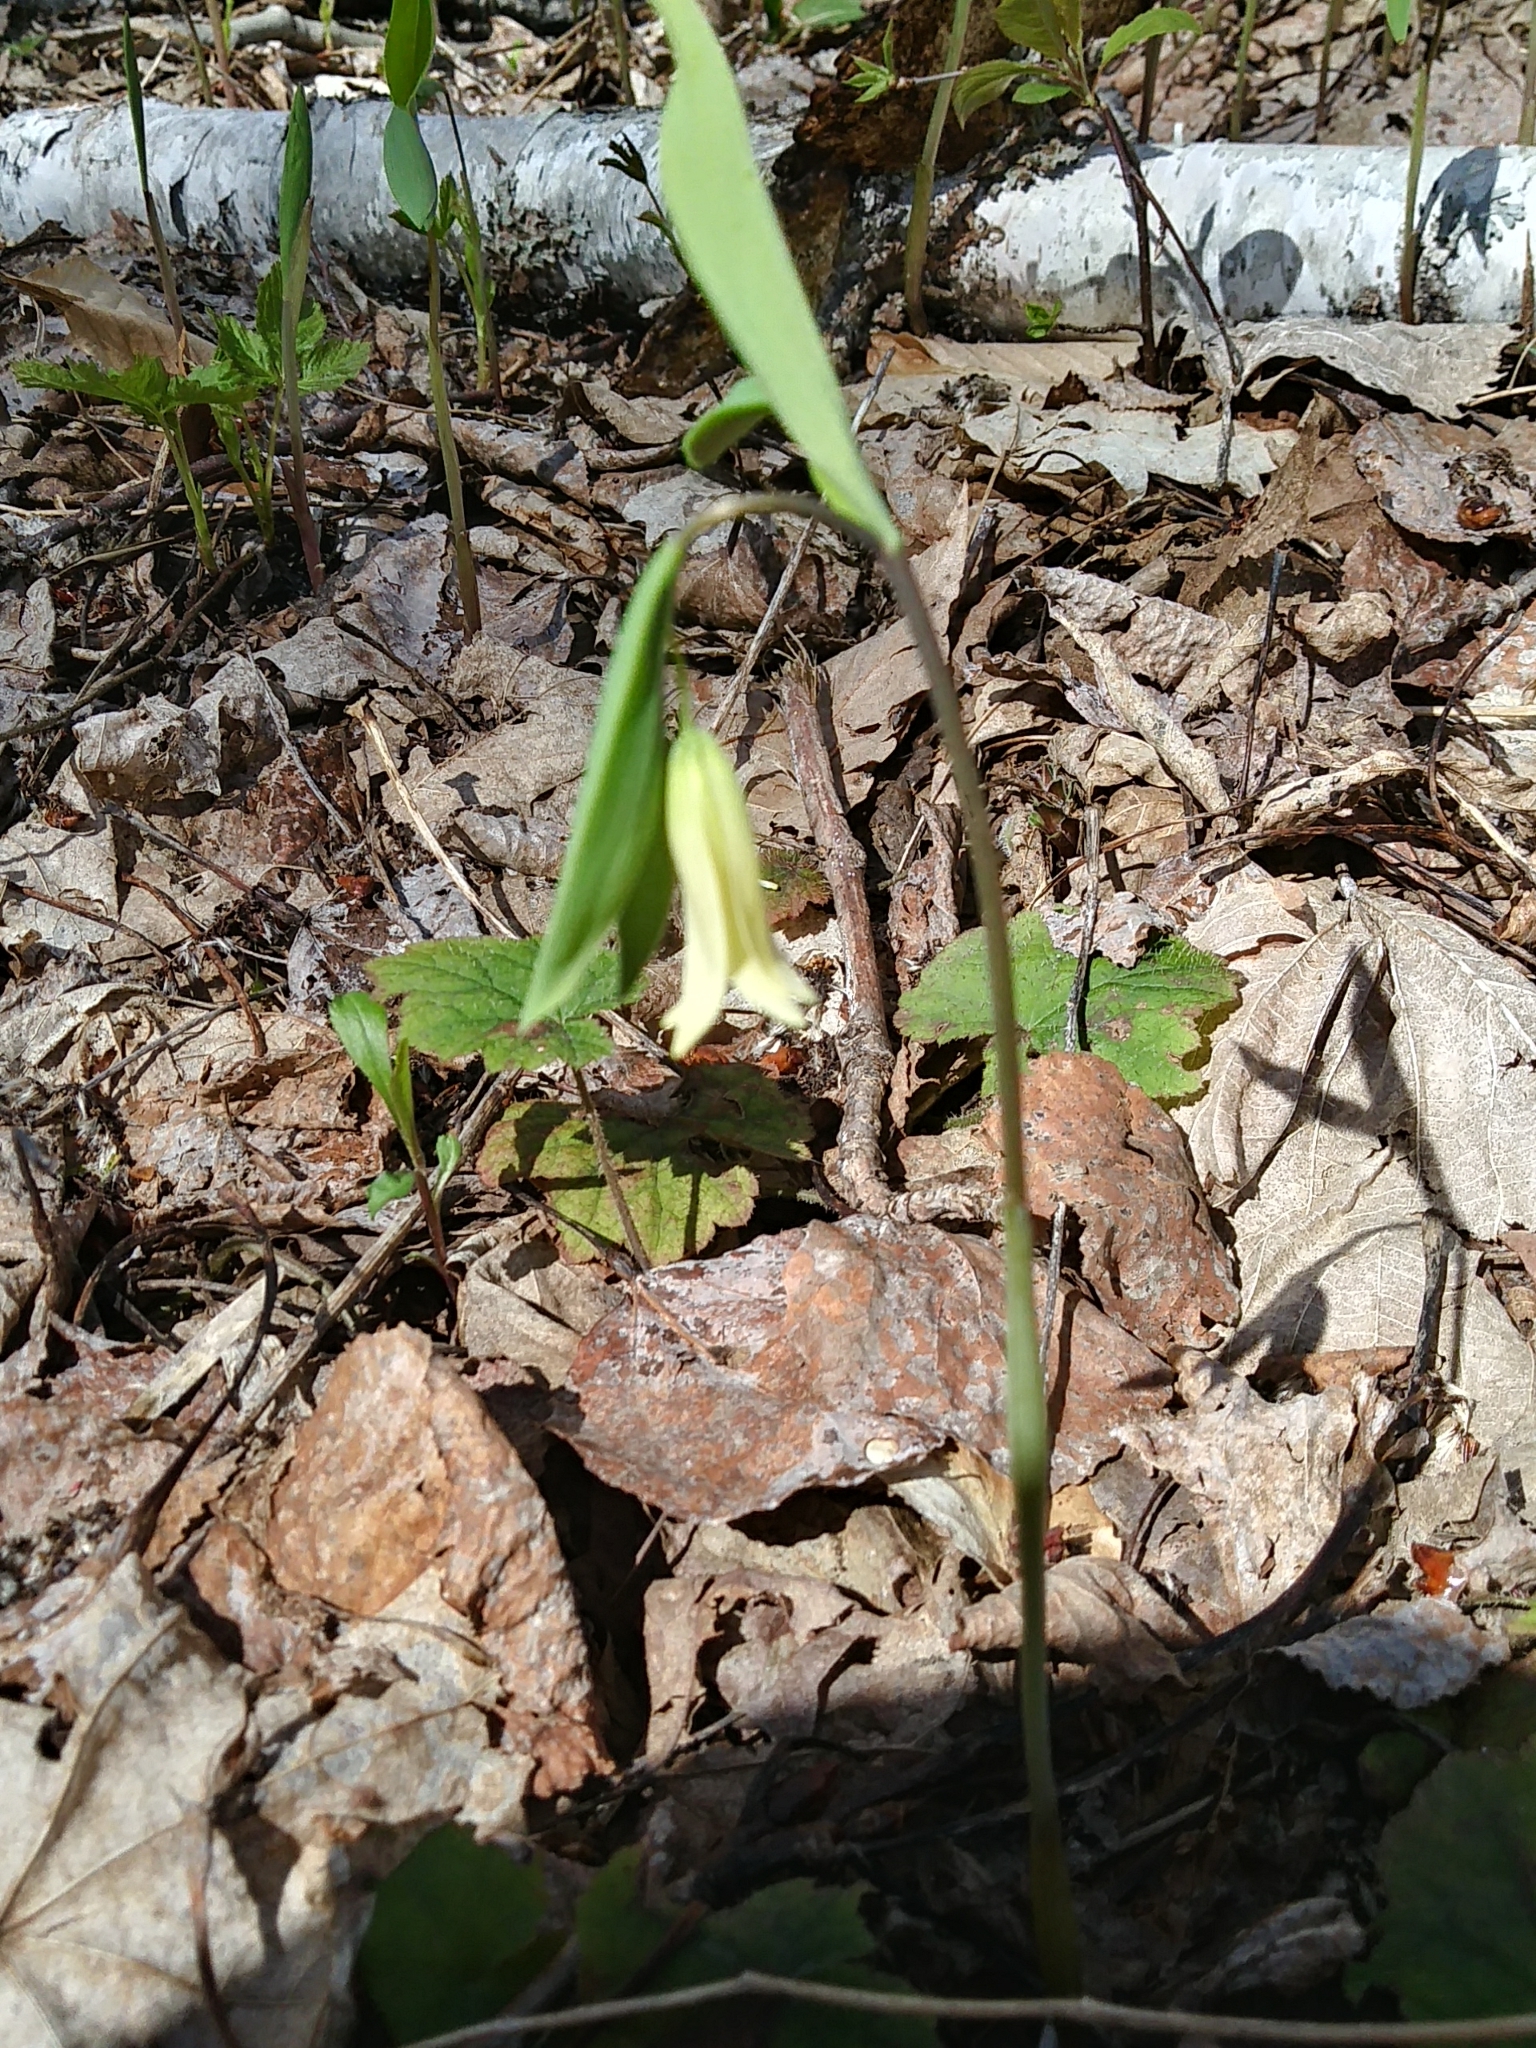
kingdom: Plantae
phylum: Tracheophyta
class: Liliopsida
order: Liliales
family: Colchicaceae
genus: Uvularia
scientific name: Uvularia sessilifolia
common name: Straw-lily
